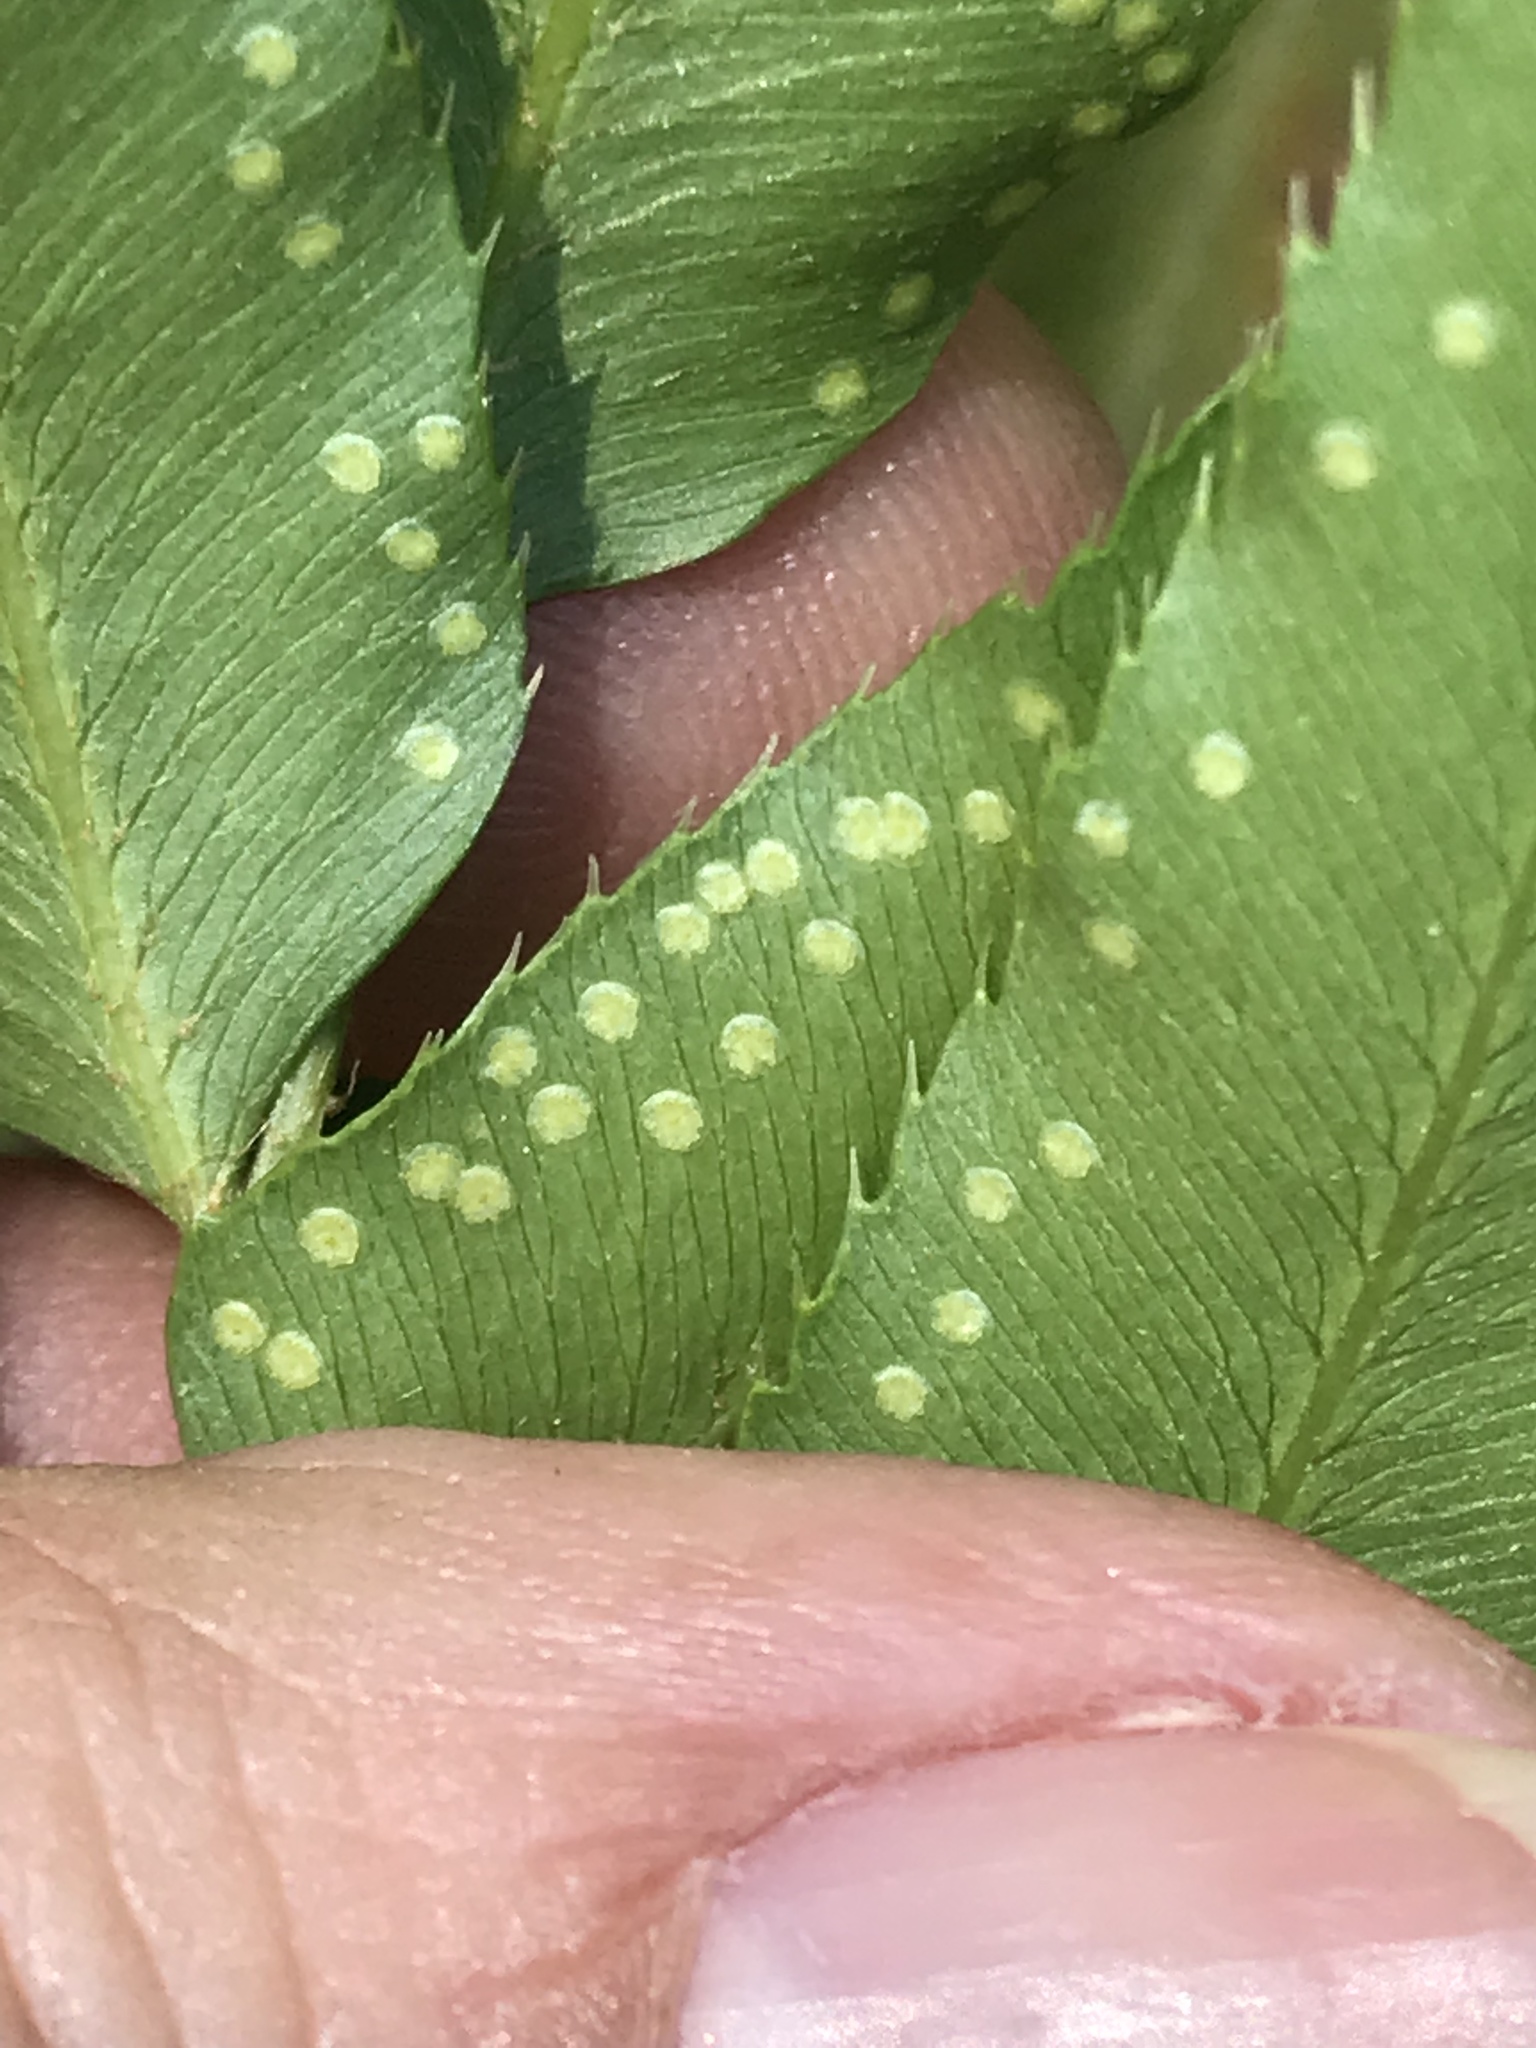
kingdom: Plantae
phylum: Tracheophyta
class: Polypodiopsida
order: Polypodiales
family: Dryopteridaceae
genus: Phanerophlebia
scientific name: Phanerophlebia umbonata
